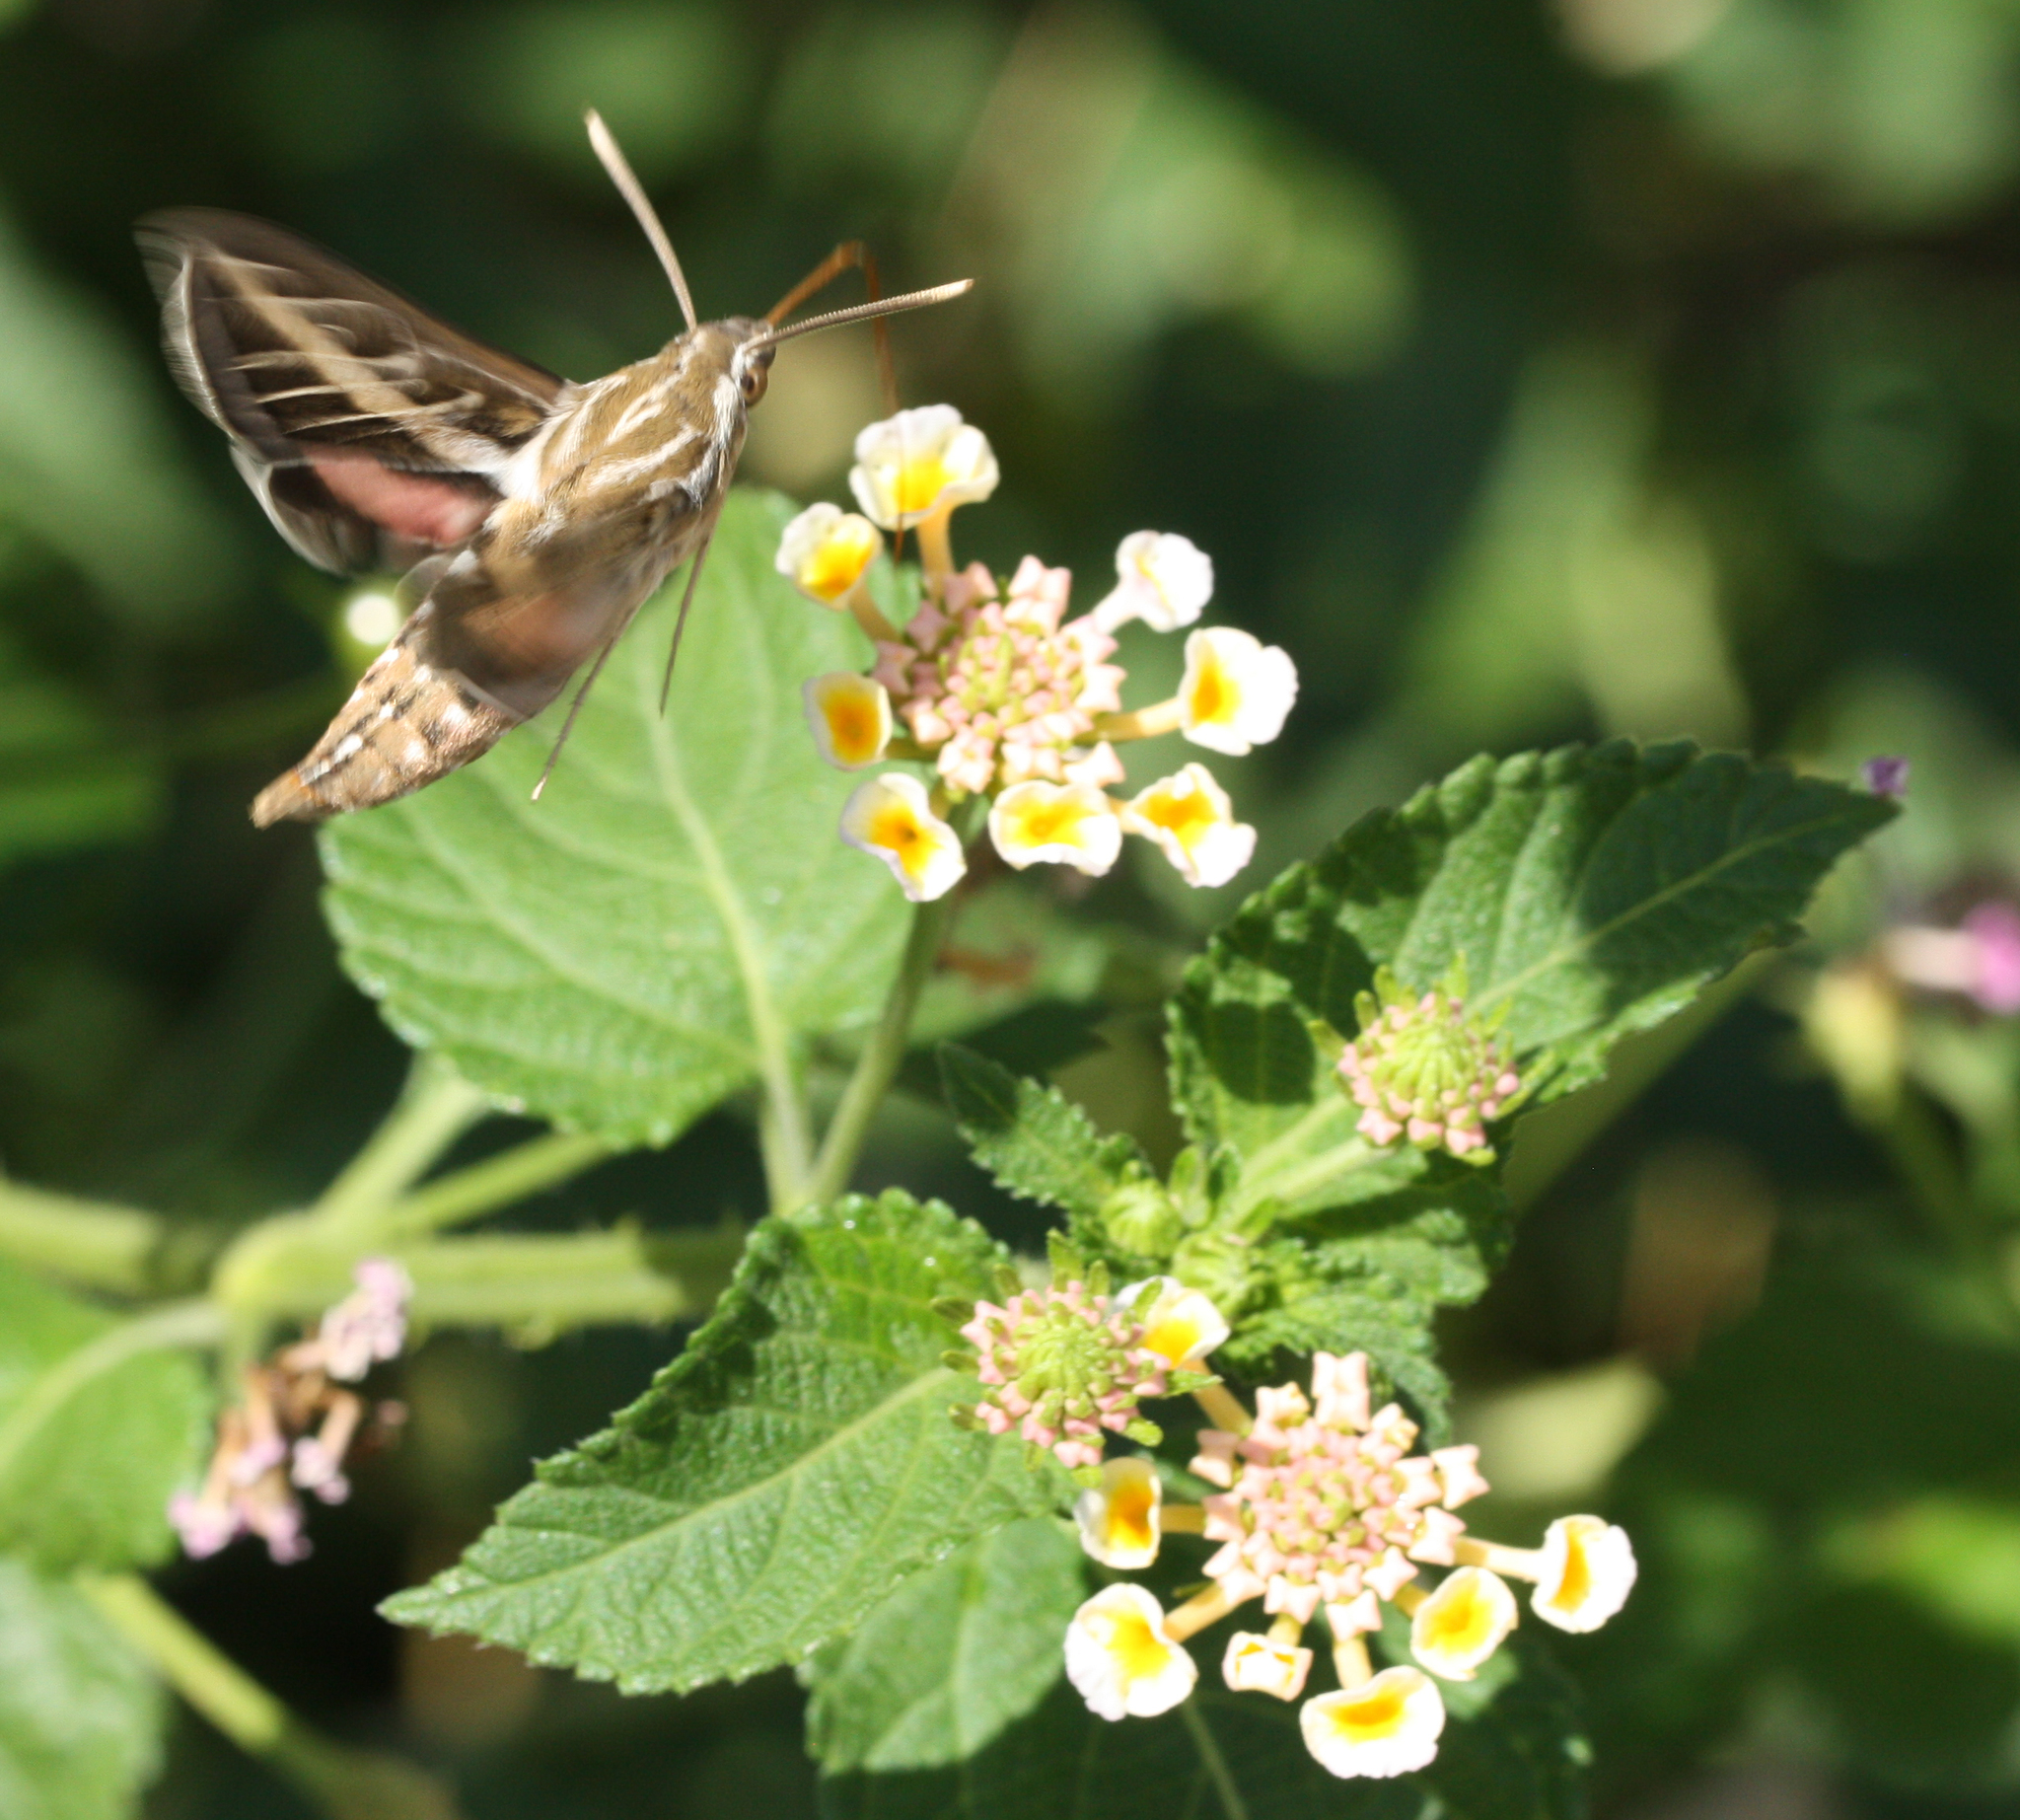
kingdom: Animalia
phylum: Arthropoda
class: Insecta
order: Lepidoptera
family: Sphingidae
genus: Hyles
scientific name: Hyles lineata
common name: White-lined sphinx
